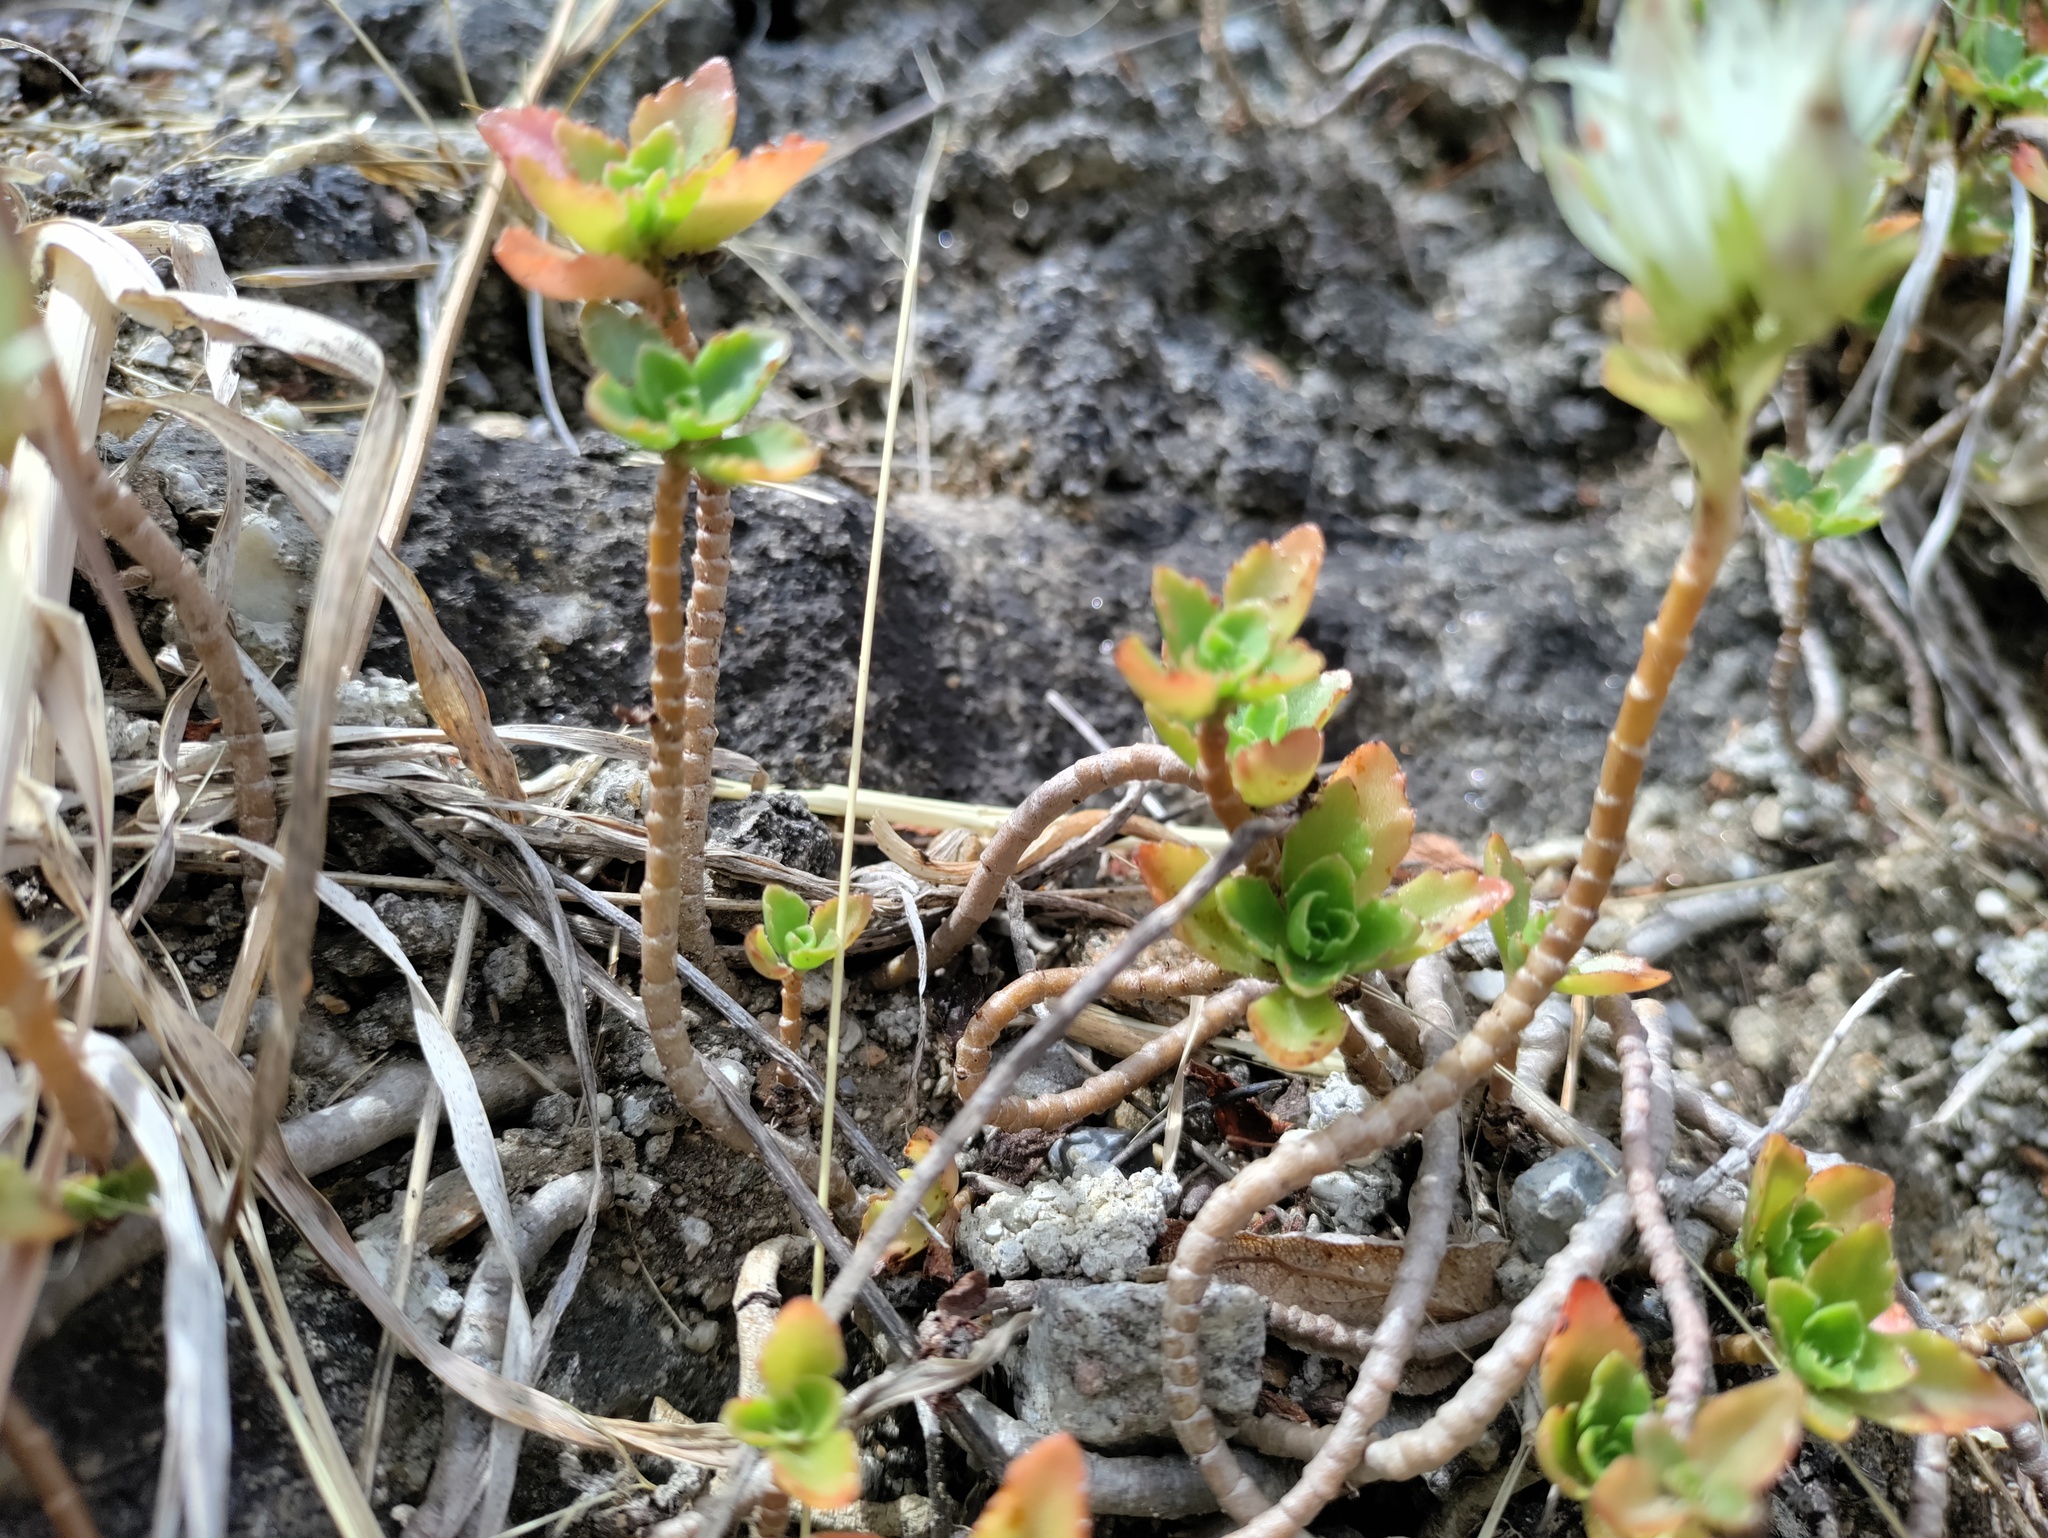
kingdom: Plantae
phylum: Tracheophyta
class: Magnoliopsida
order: Saxifragales
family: Crassulaceae
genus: Phedimus
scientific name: Phedimus spurius
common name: Caucasian stonecrop
